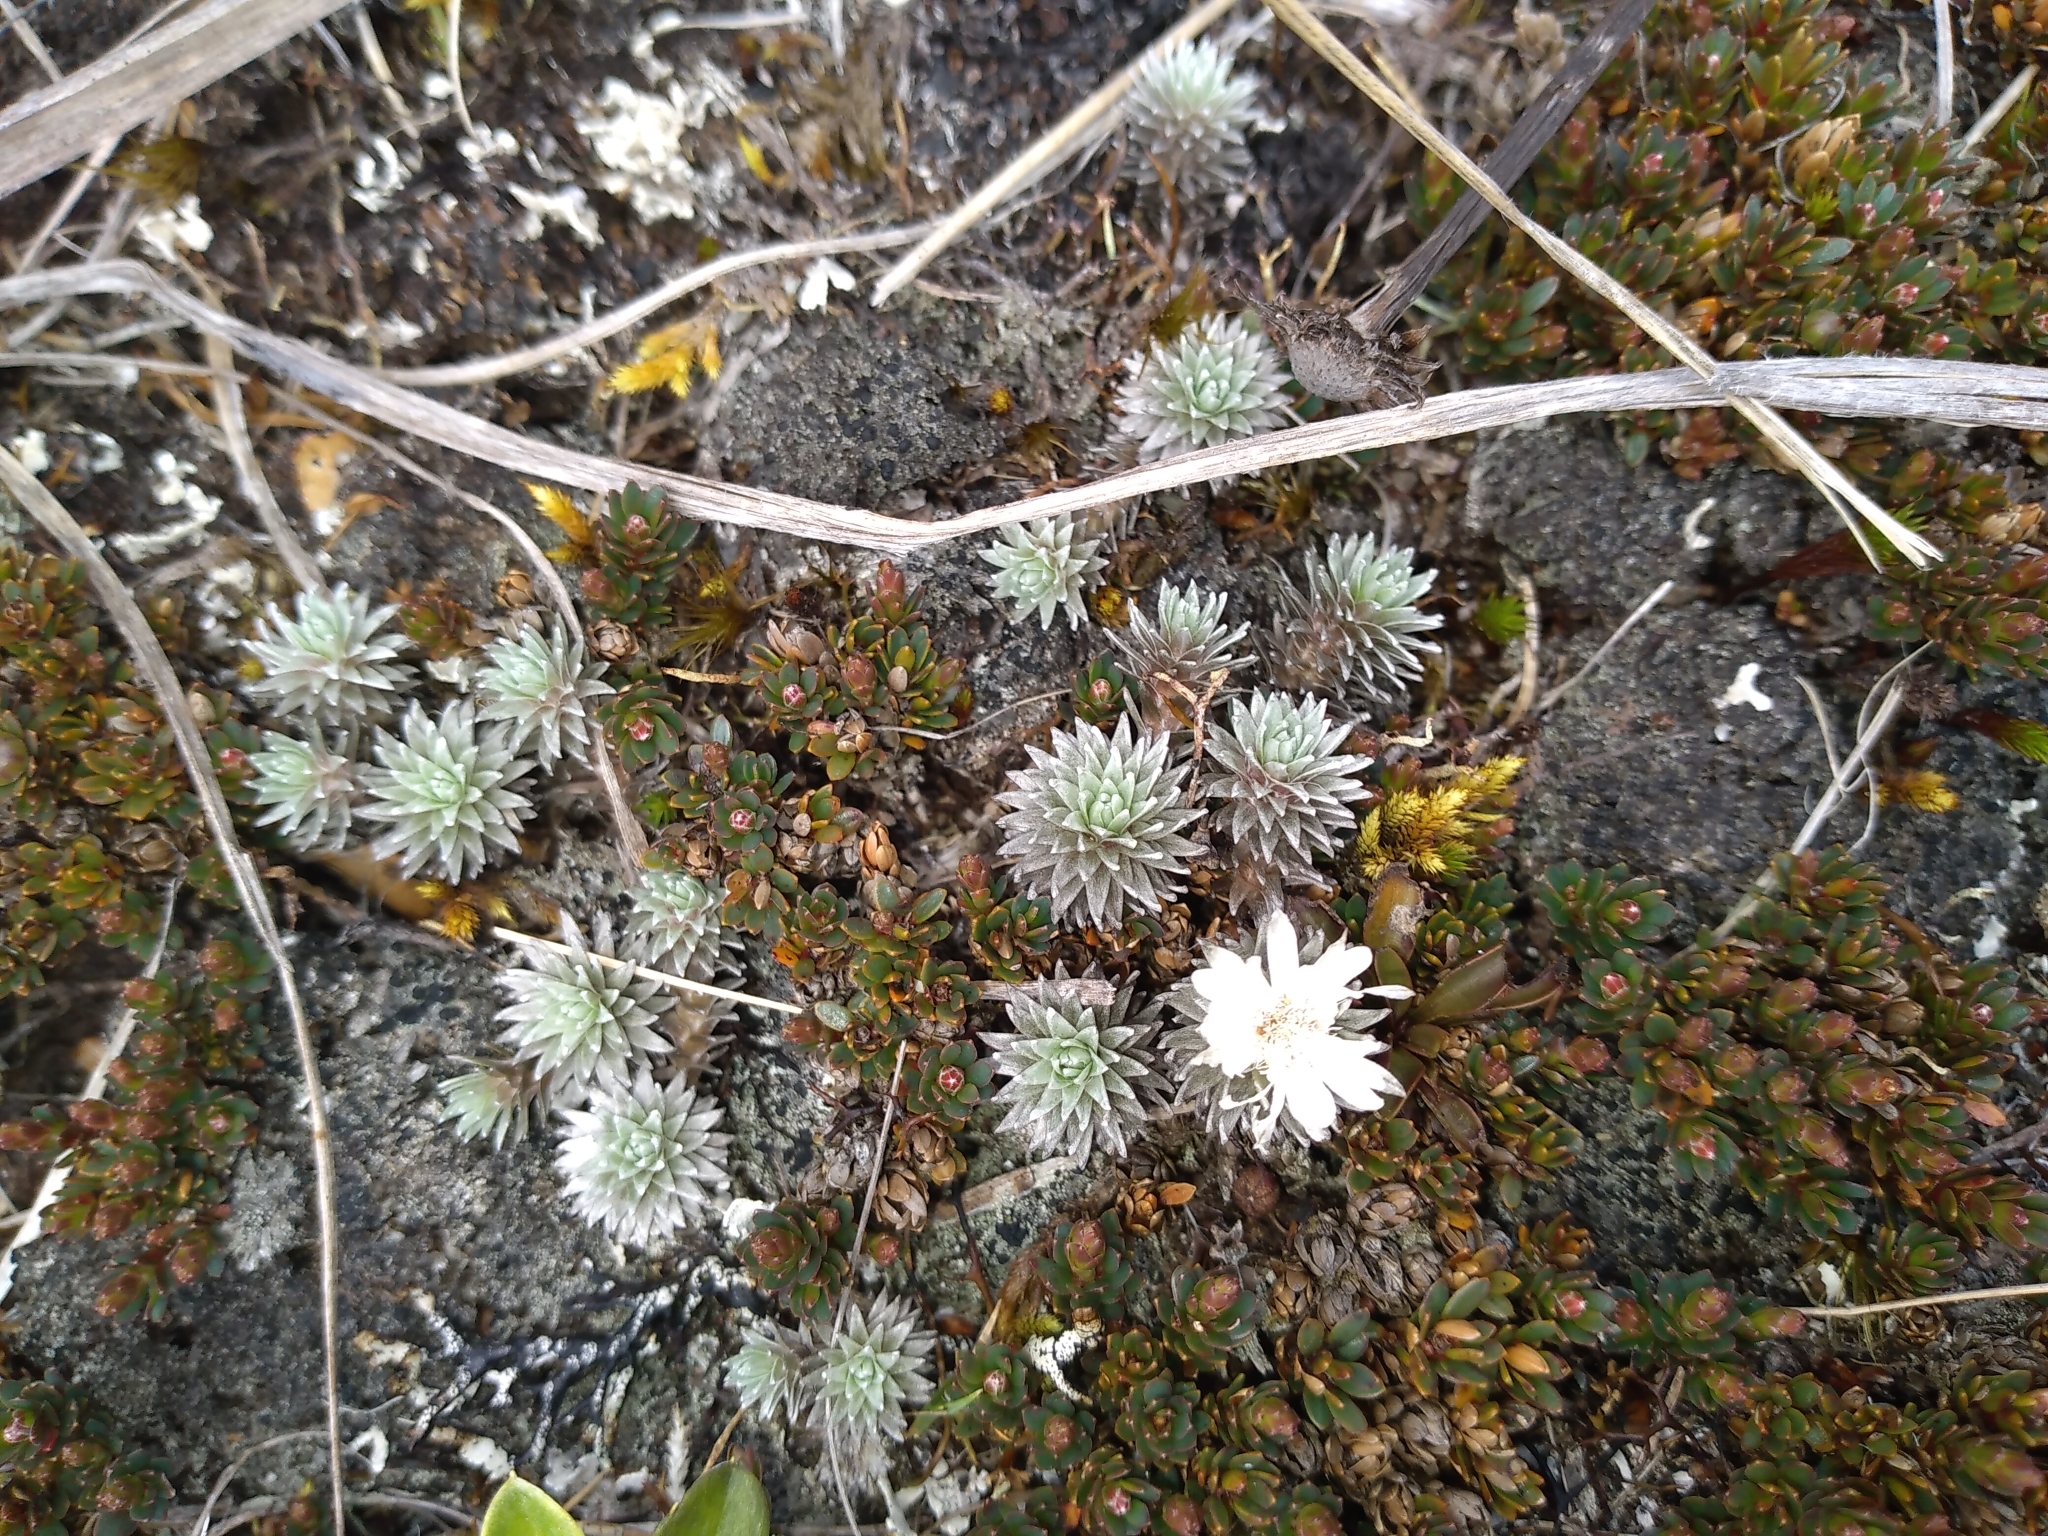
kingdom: Plantae
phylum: Tracheophyta
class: Magnoliopsida
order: Asterales
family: Asteraceae
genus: Raoulia
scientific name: Raoulia grandiflora
